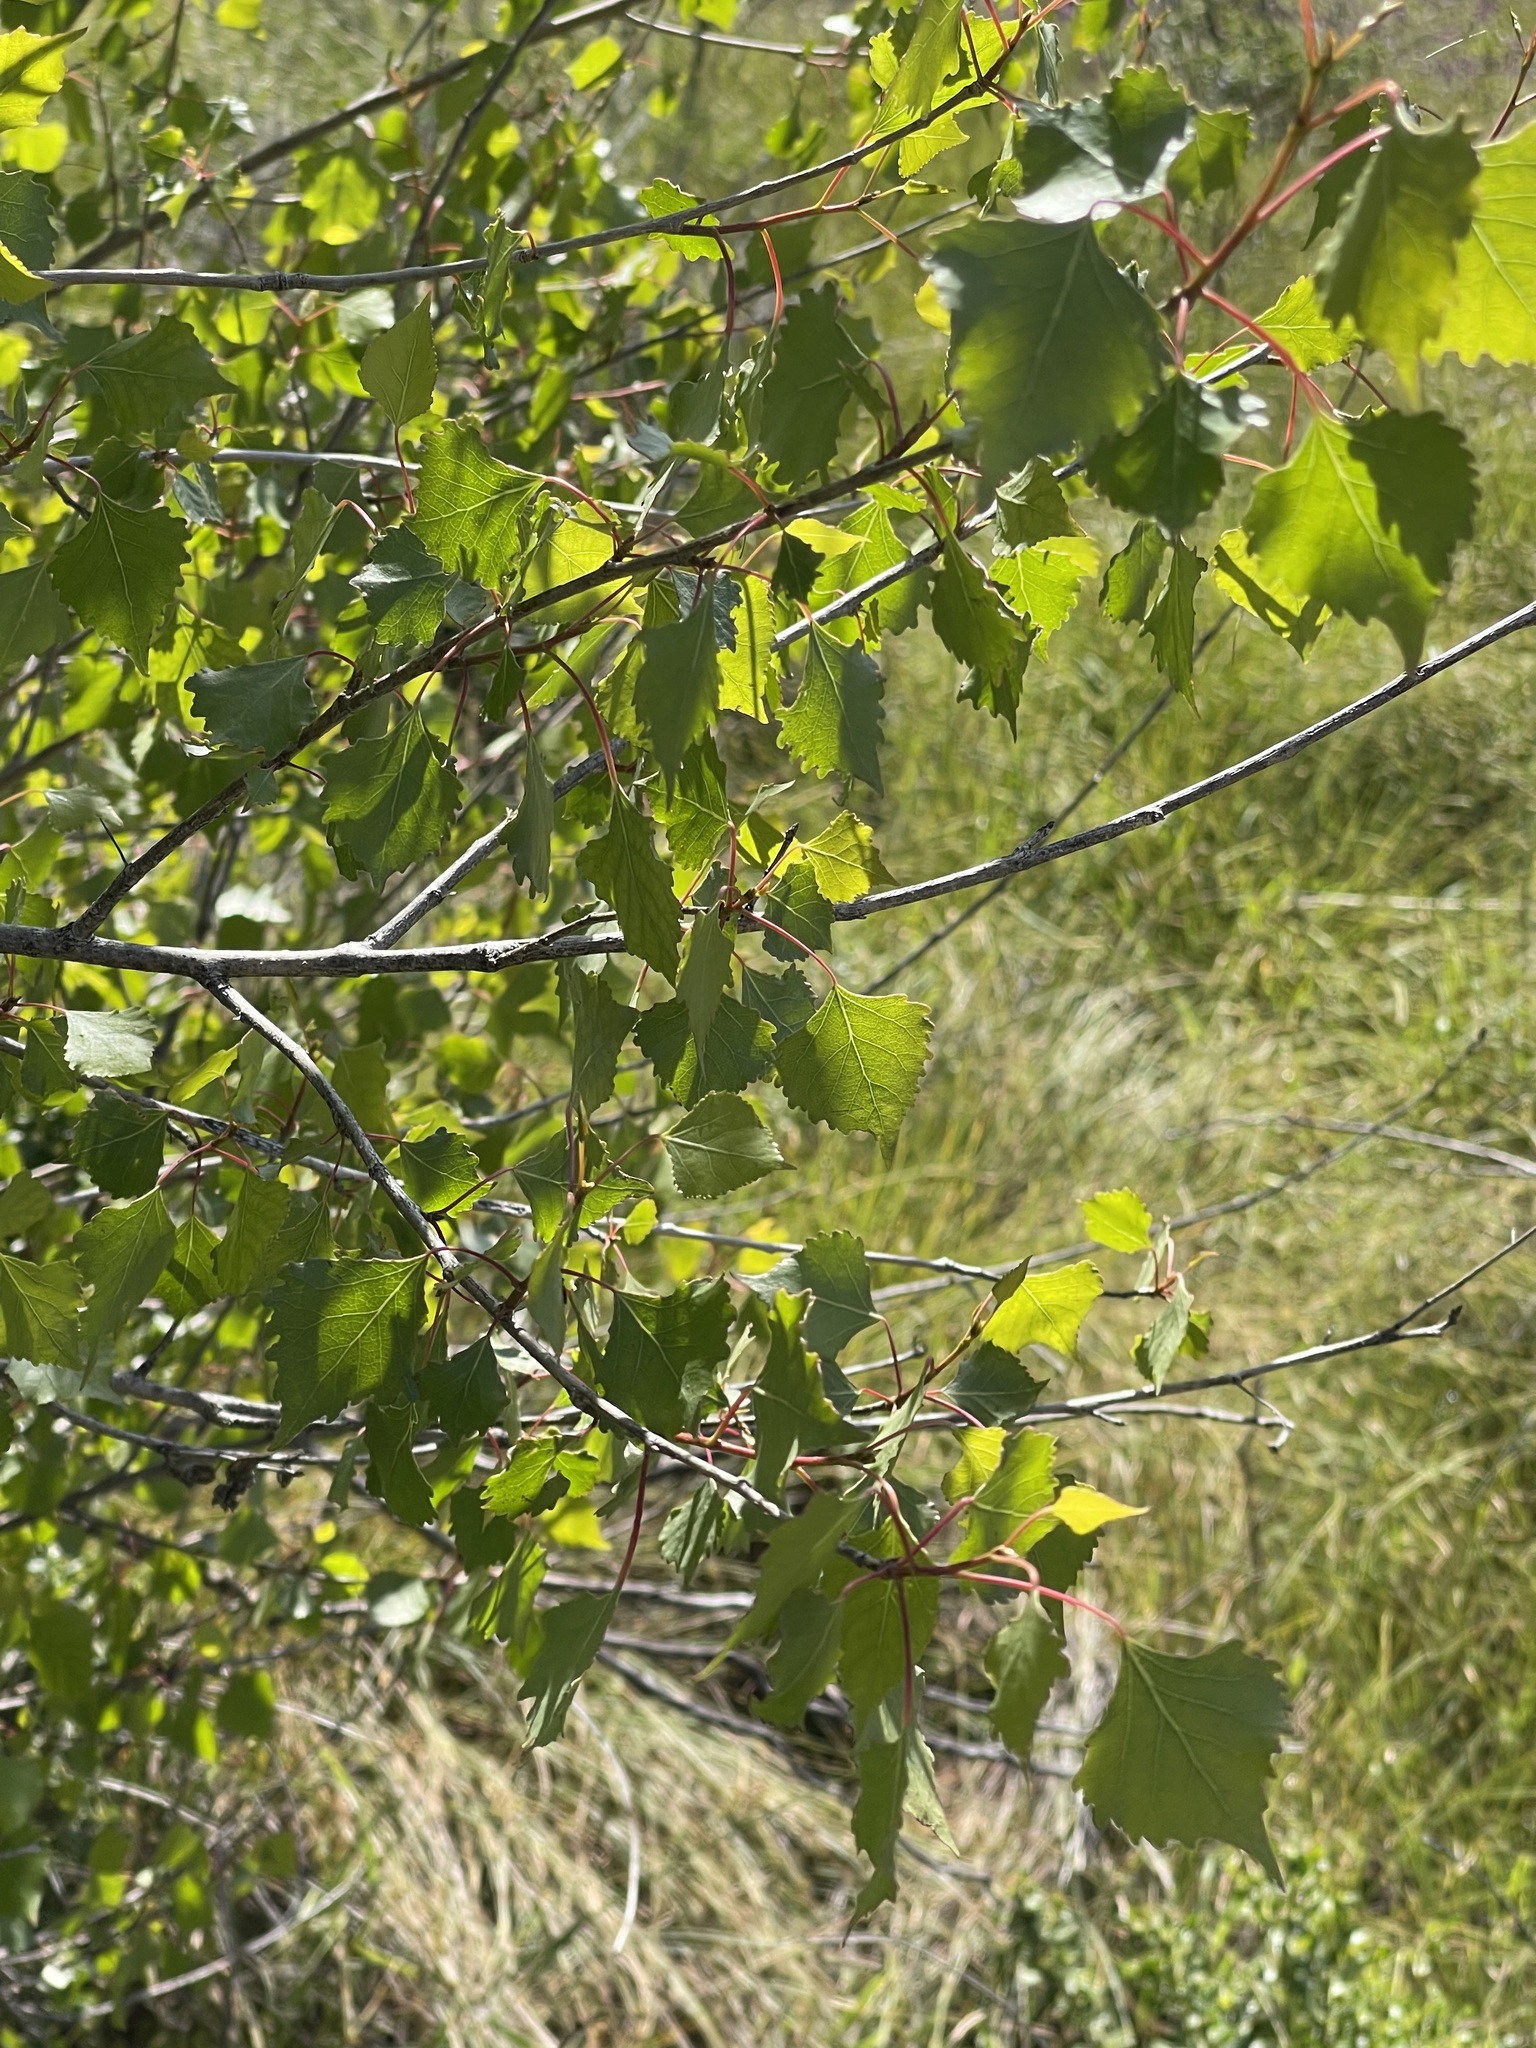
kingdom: Plantae
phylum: Tracheophyta
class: Magnoliopsida
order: Malpighiales
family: Salicaceae
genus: Populus
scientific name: Populus fremontii
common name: Fremont's cottonwood
